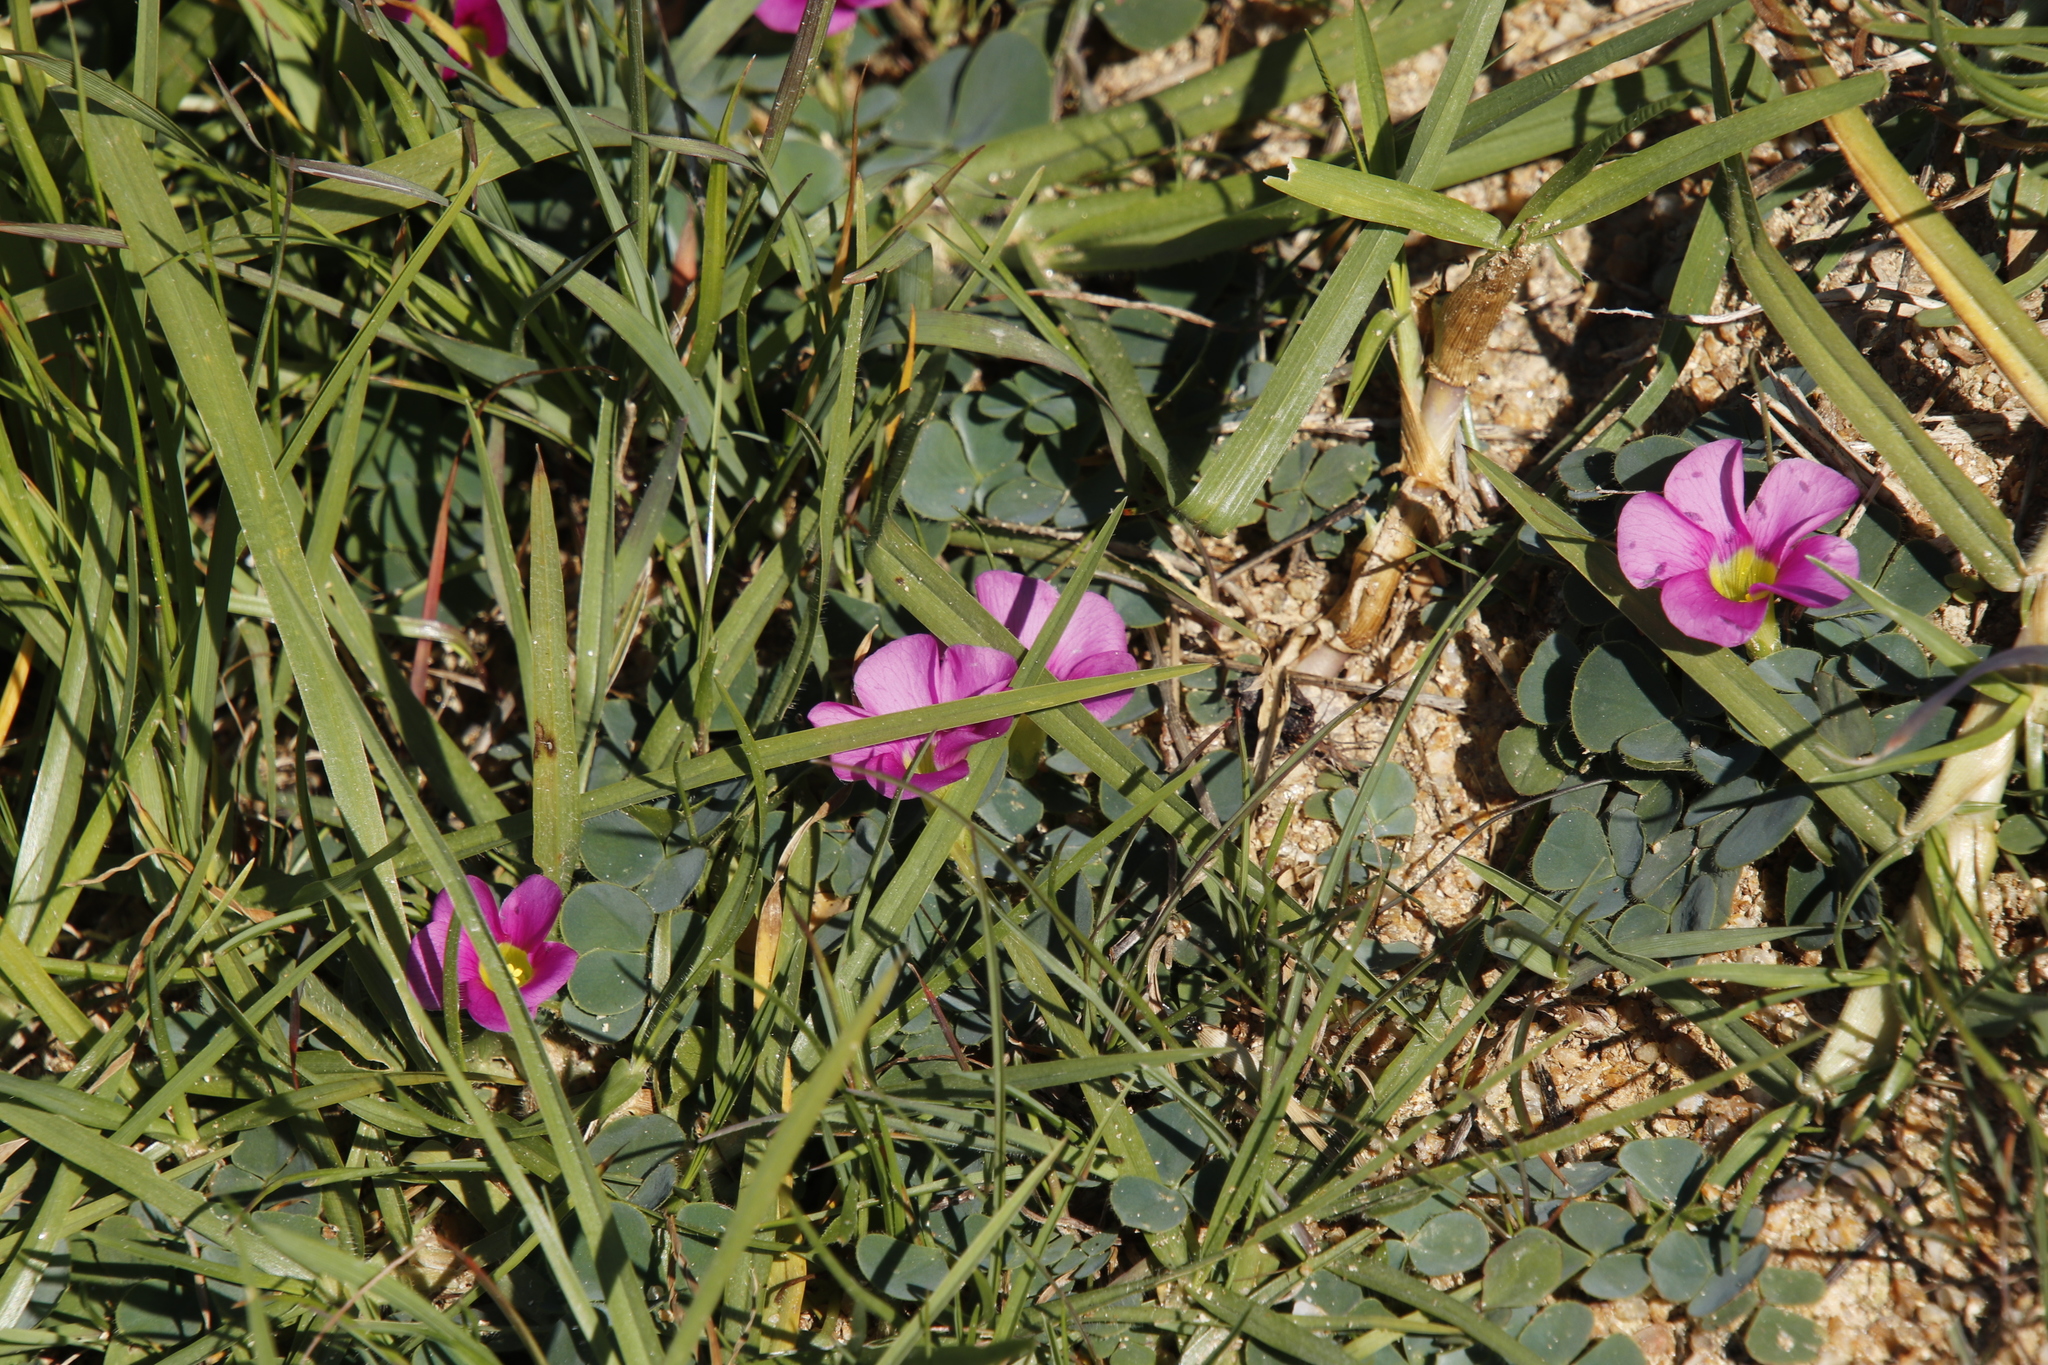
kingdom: Plantae
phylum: Tracheophyta
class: Magnoliopsida
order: Oxalidales
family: Oxalidaceae
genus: Oxalis
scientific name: Oxalis purpurea
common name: Purple woodsorrel
